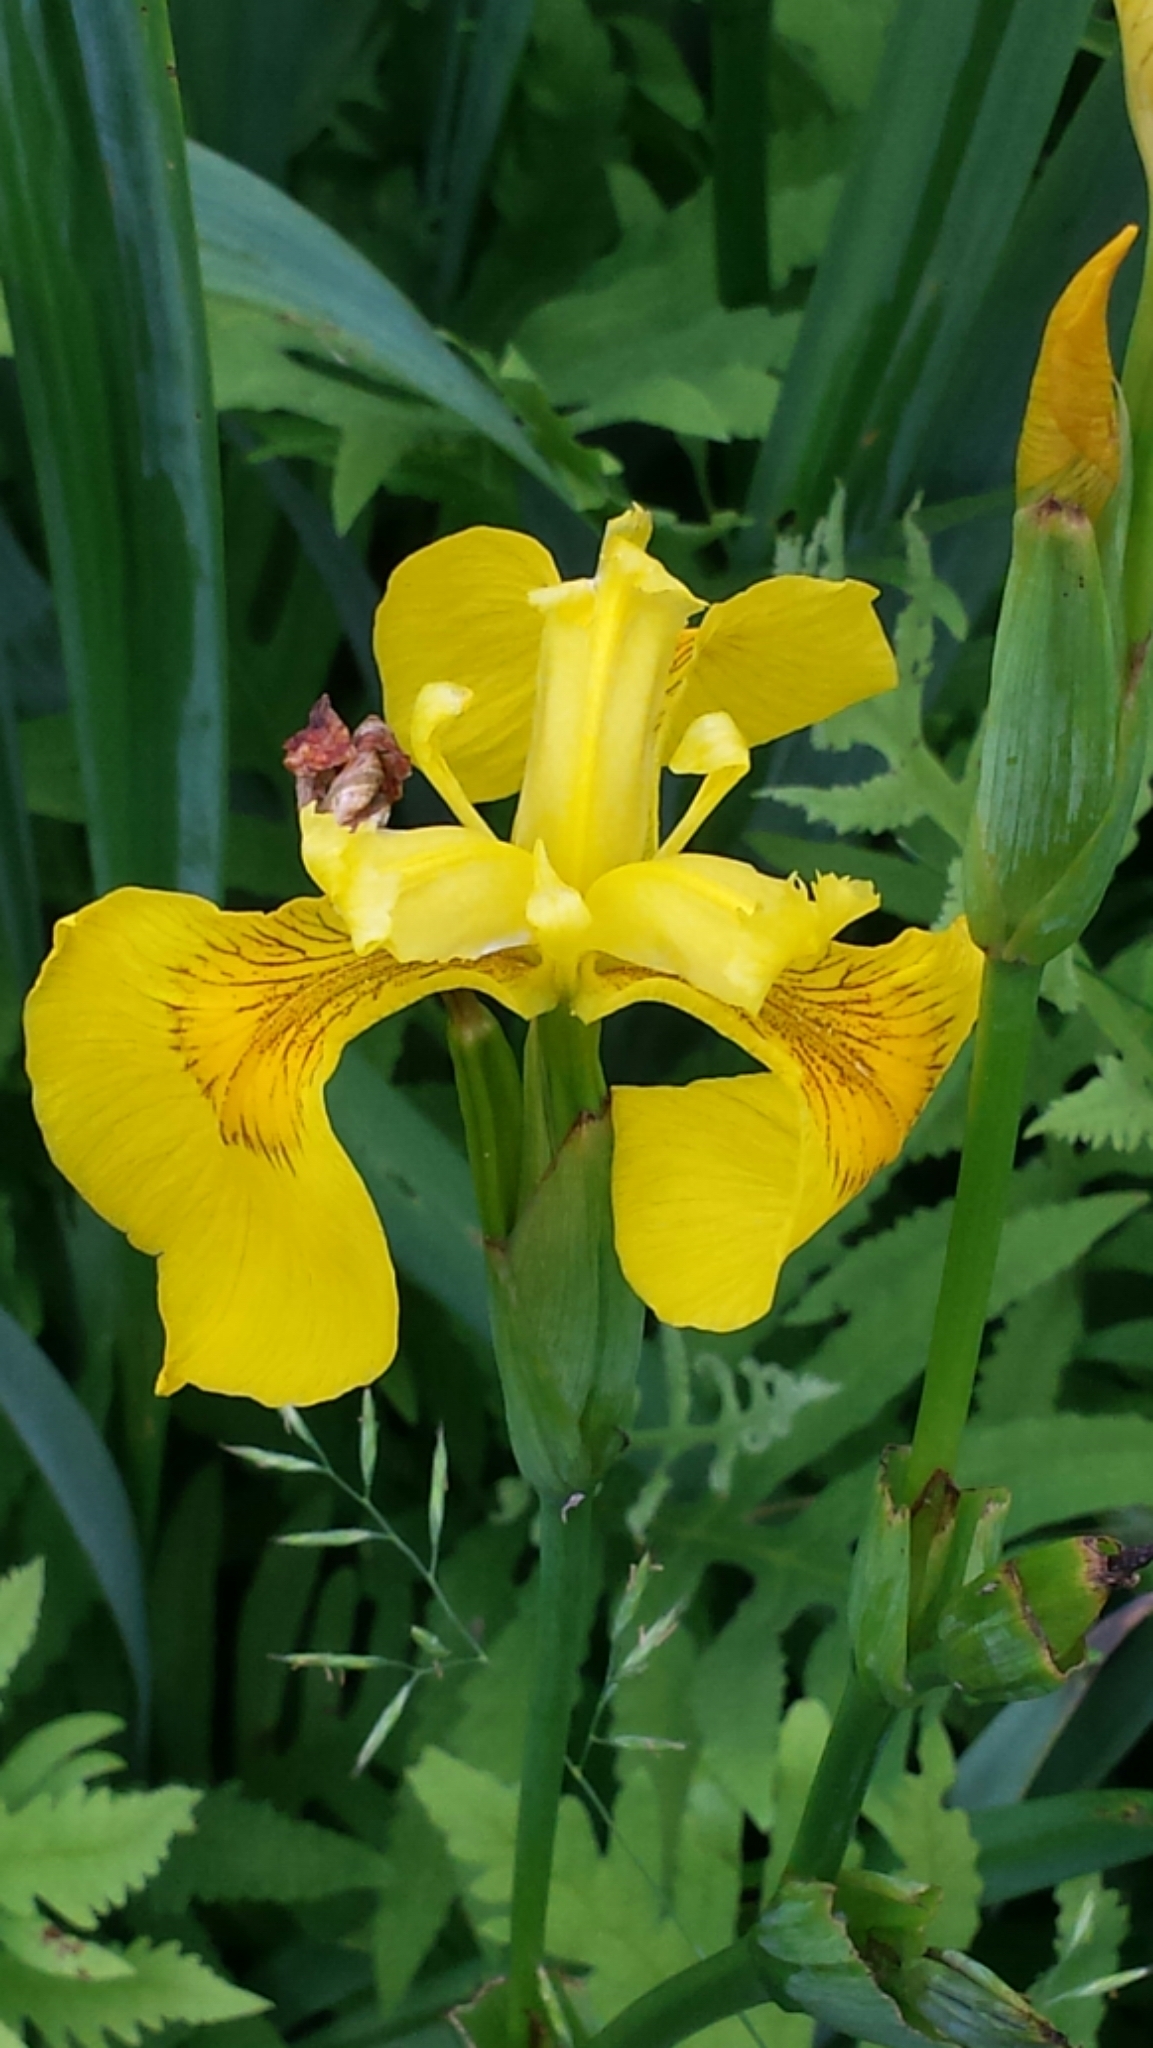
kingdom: Plantae
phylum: Tracheophyta
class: Liliopsida
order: Asparagales
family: Iridaceae
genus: Iris
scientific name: Iris pseudacorus
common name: Yellow flag
